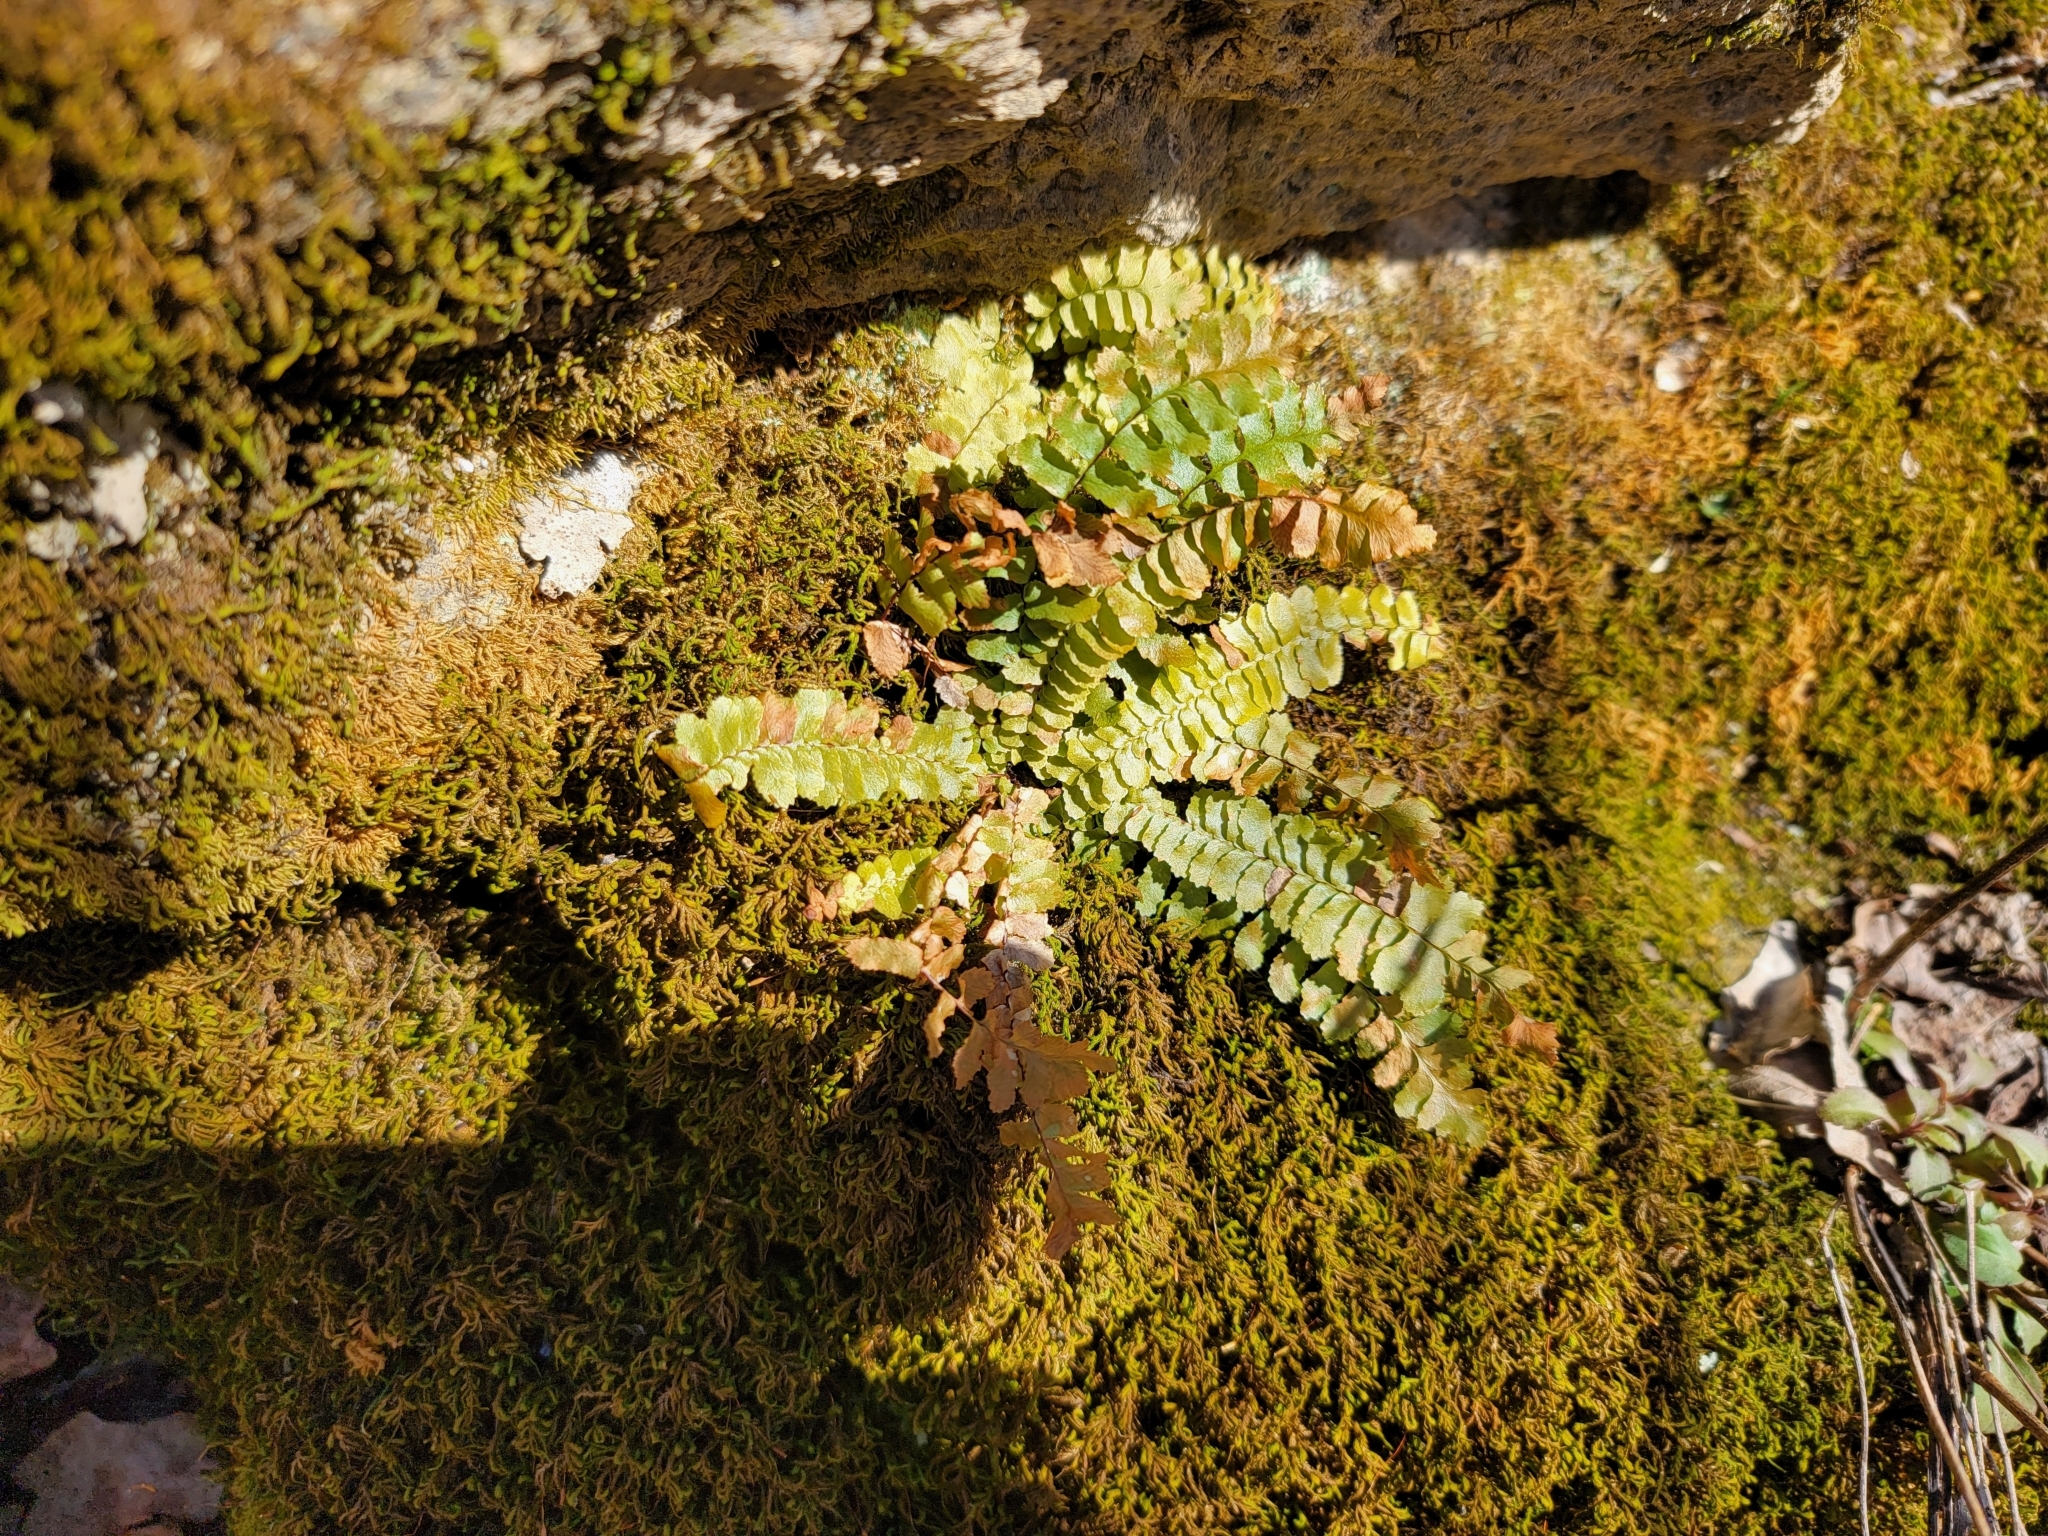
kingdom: Plantae
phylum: Tracheophyta
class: Polypodiopsida
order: Polypodiales
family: Aspleniaceae
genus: Asplenium
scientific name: Asplenium platyneuron
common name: Ebony spleenwort
